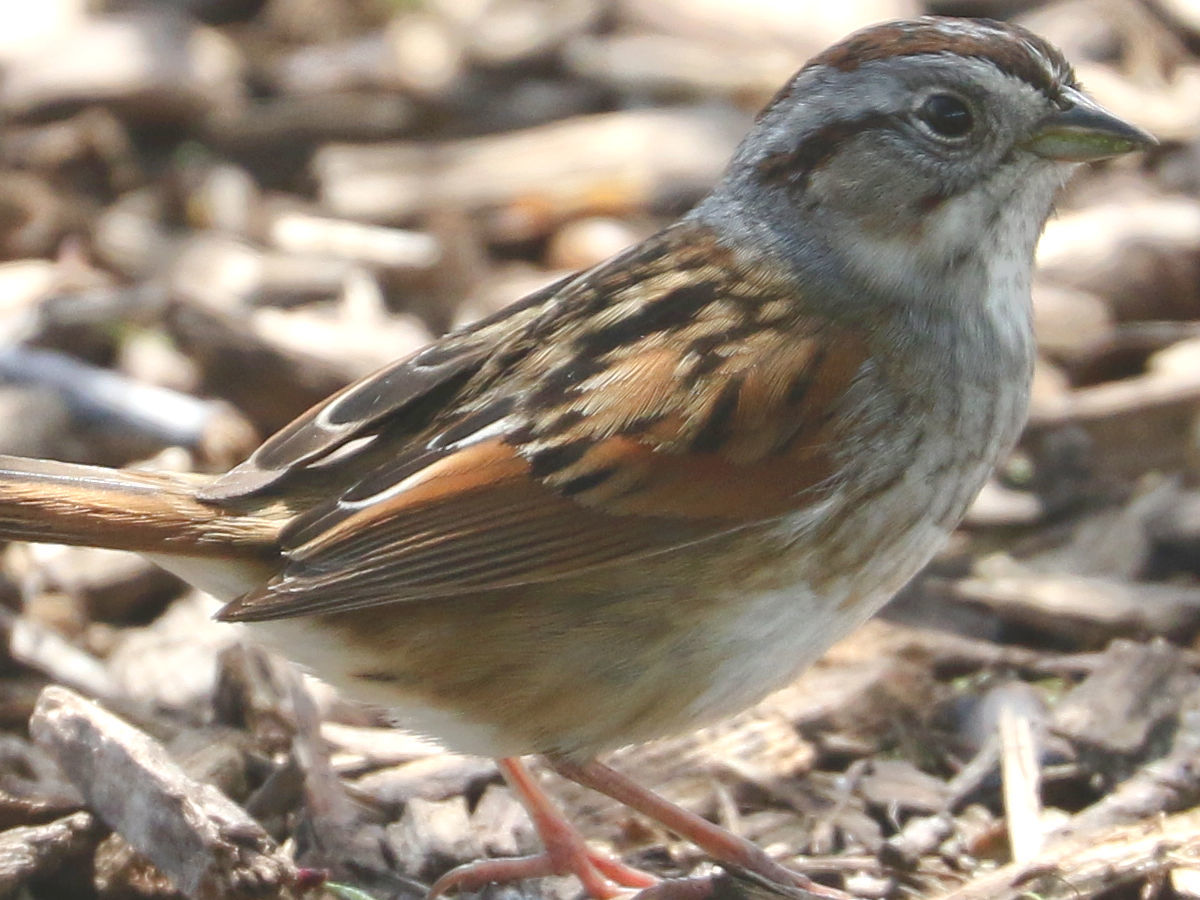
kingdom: Animalia
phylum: Chordata
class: Aves
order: Passeriformes
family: Passerellidae
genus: Melospiza
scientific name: Melospiza georgiana
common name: Swamp sparrow
